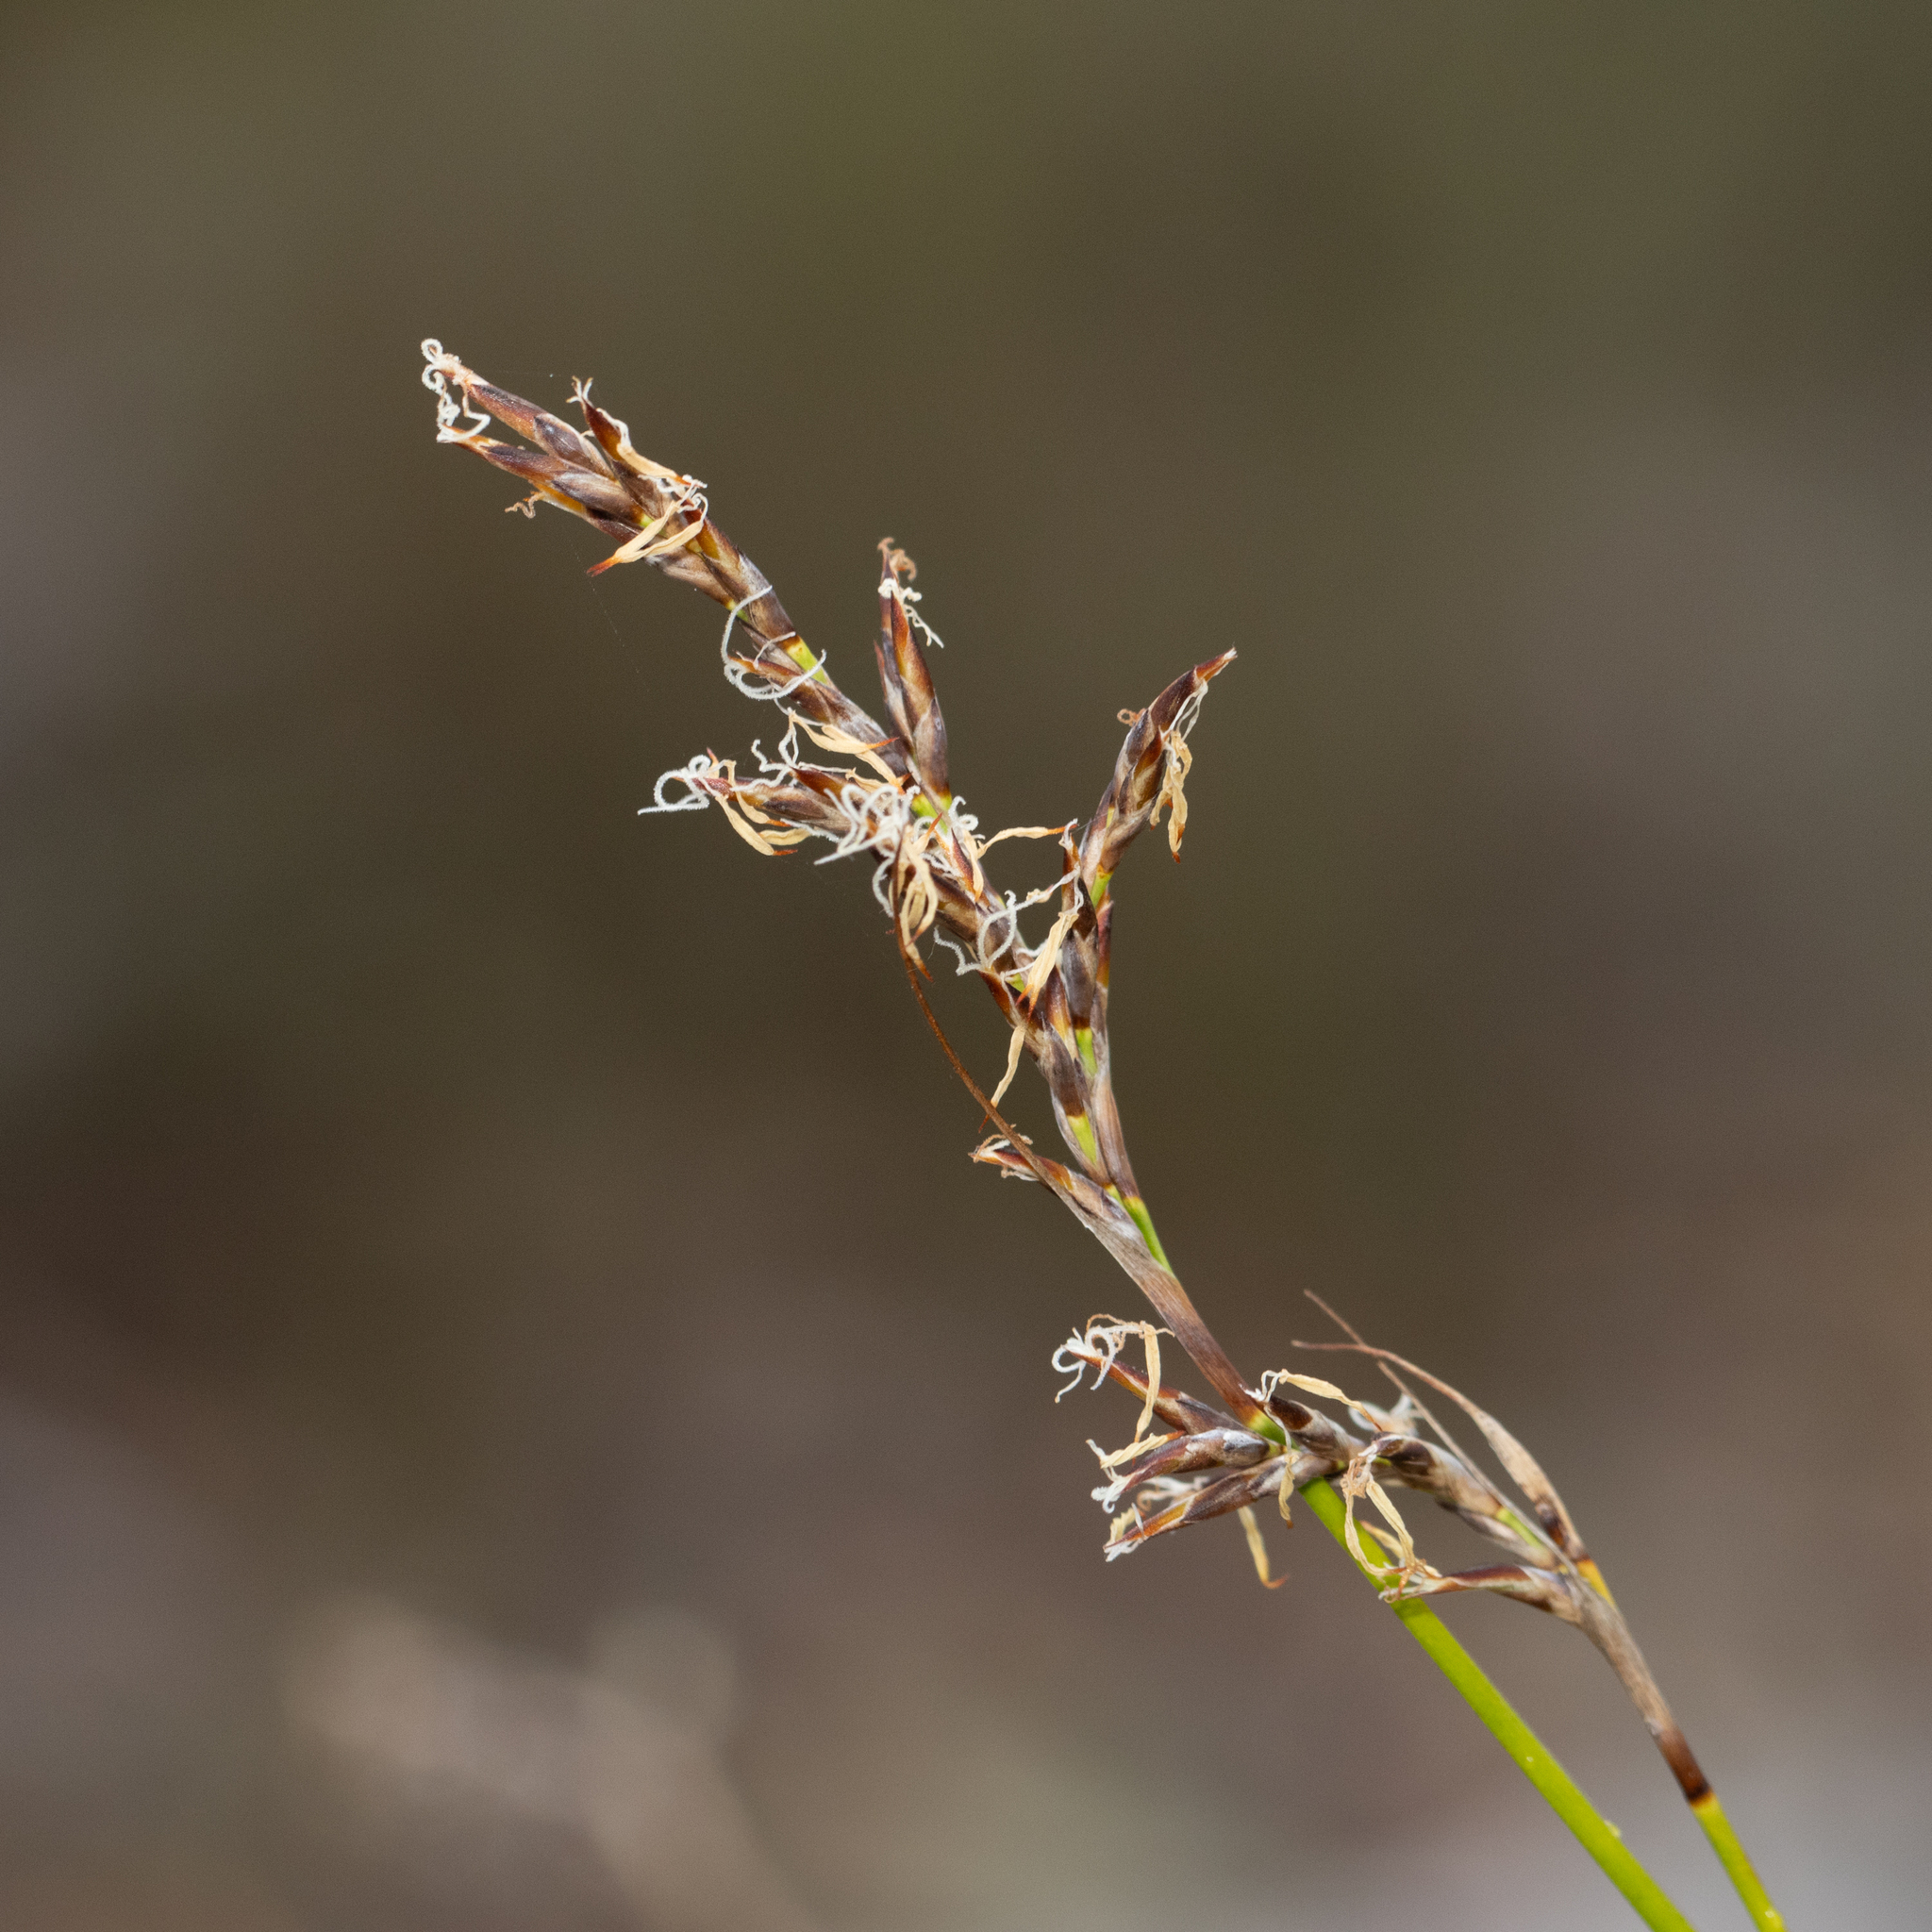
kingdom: Plantae
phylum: Tracheophyta
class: Liliopsida
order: Poales
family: Cyperaceae
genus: Lepidosperma
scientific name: Lepidosperma semiteres
